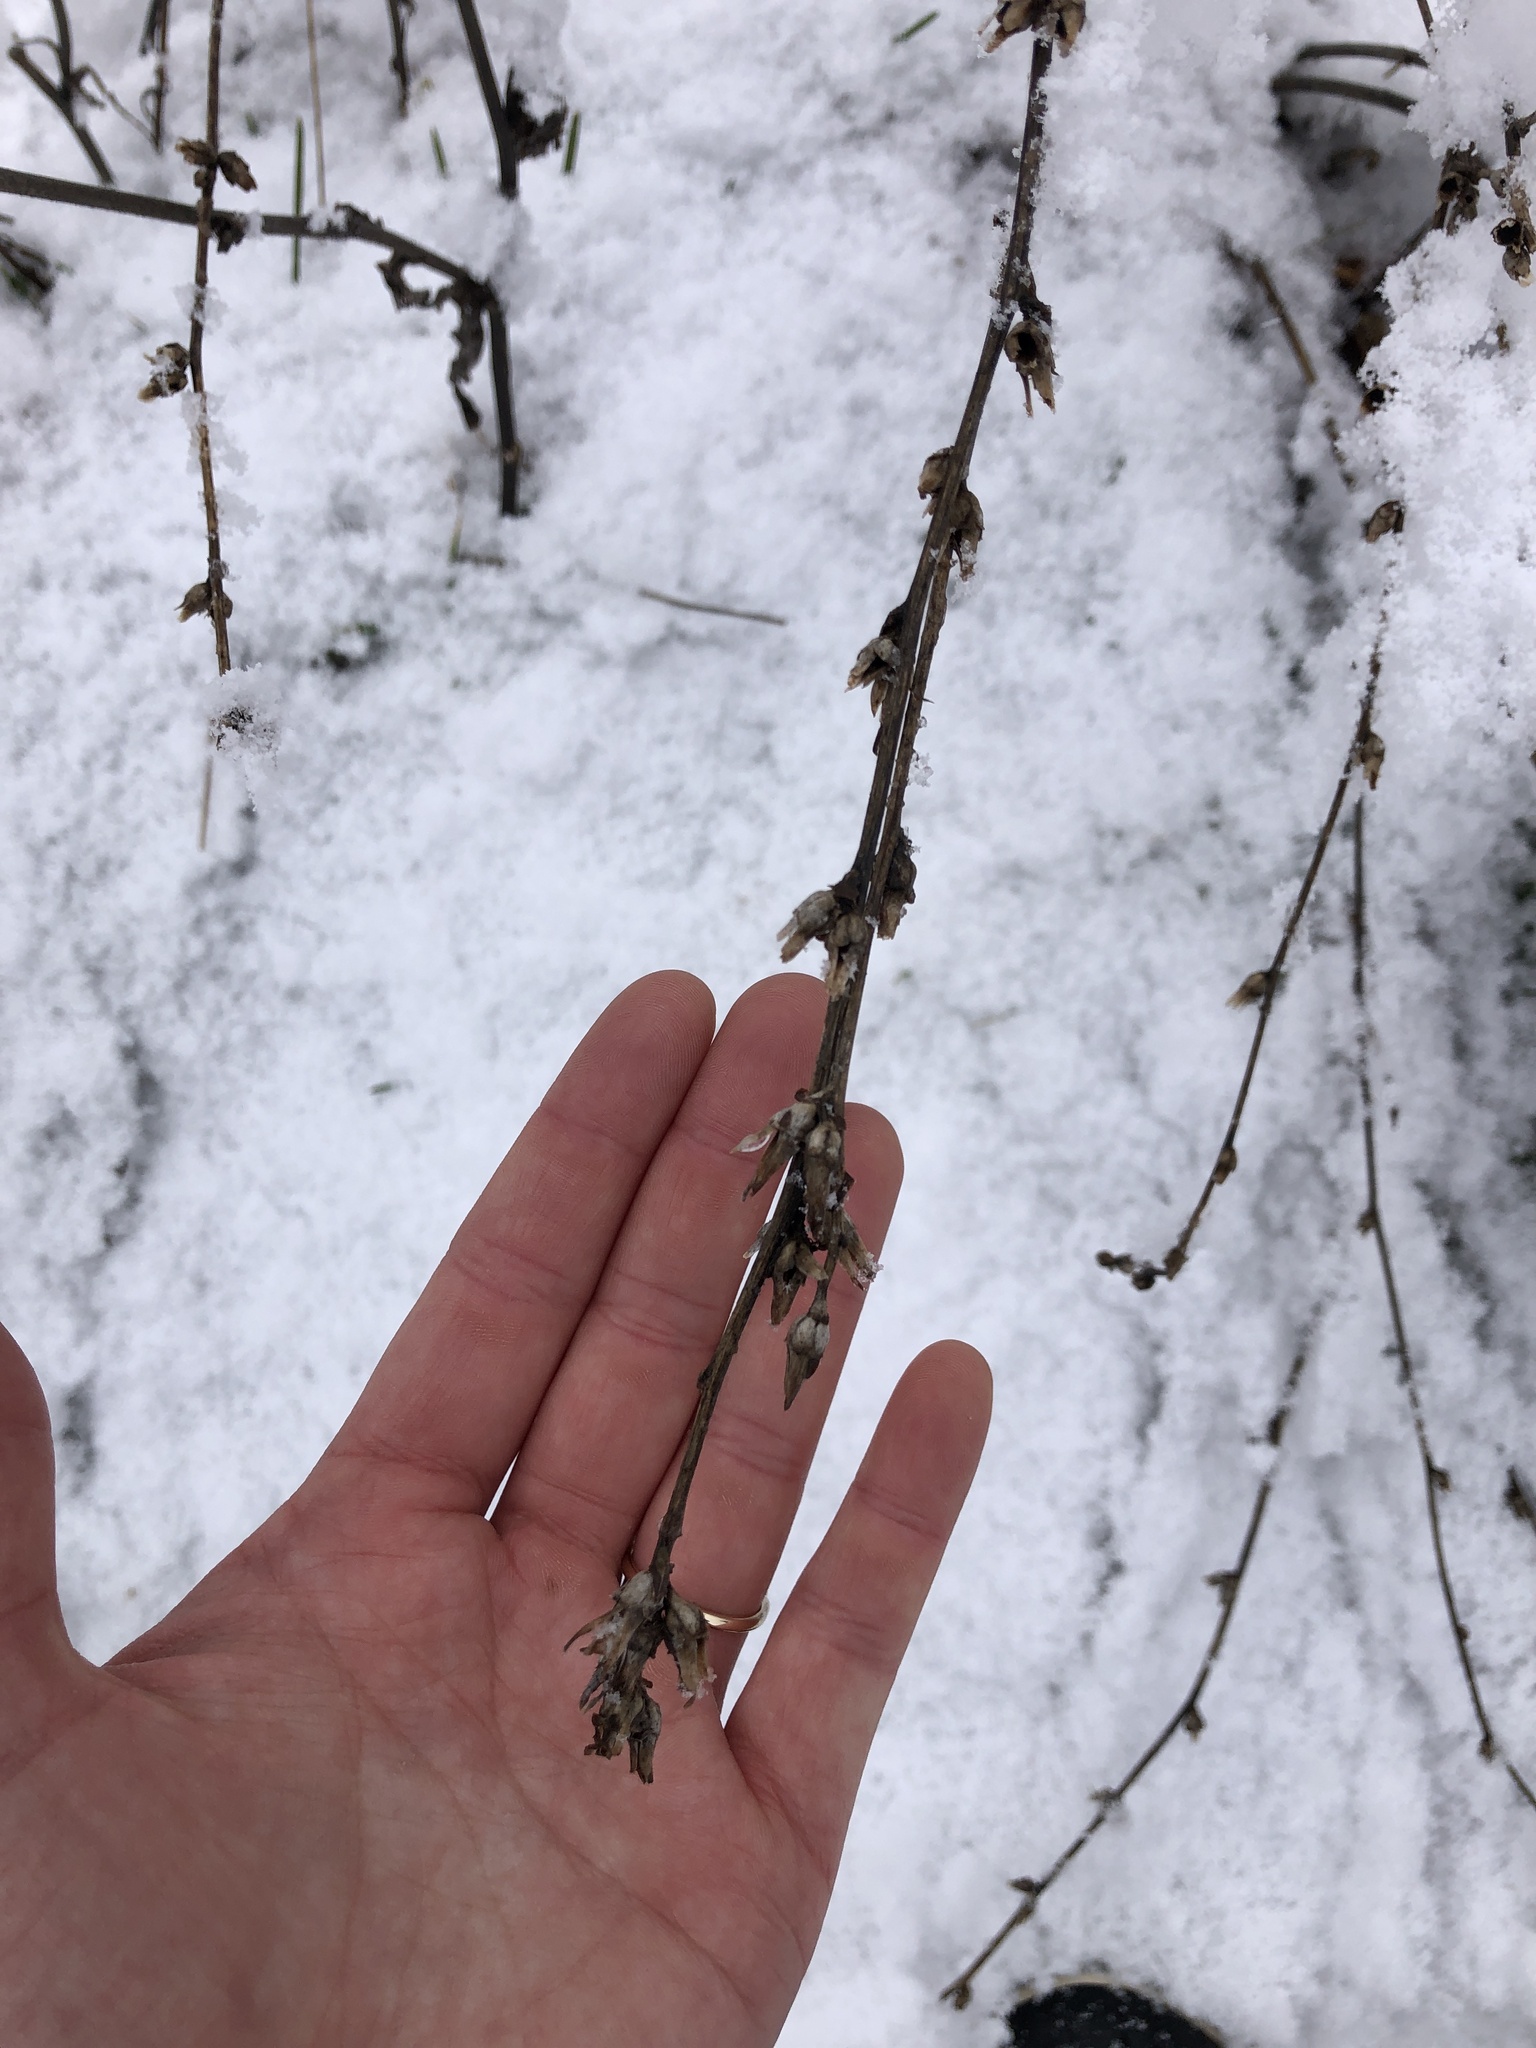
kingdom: Plantae
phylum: Tracheophyta
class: Magnoliopsida
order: Asterales
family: Asteraceae
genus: Cichorium
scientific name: Cichorium intybus
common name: Chicory
